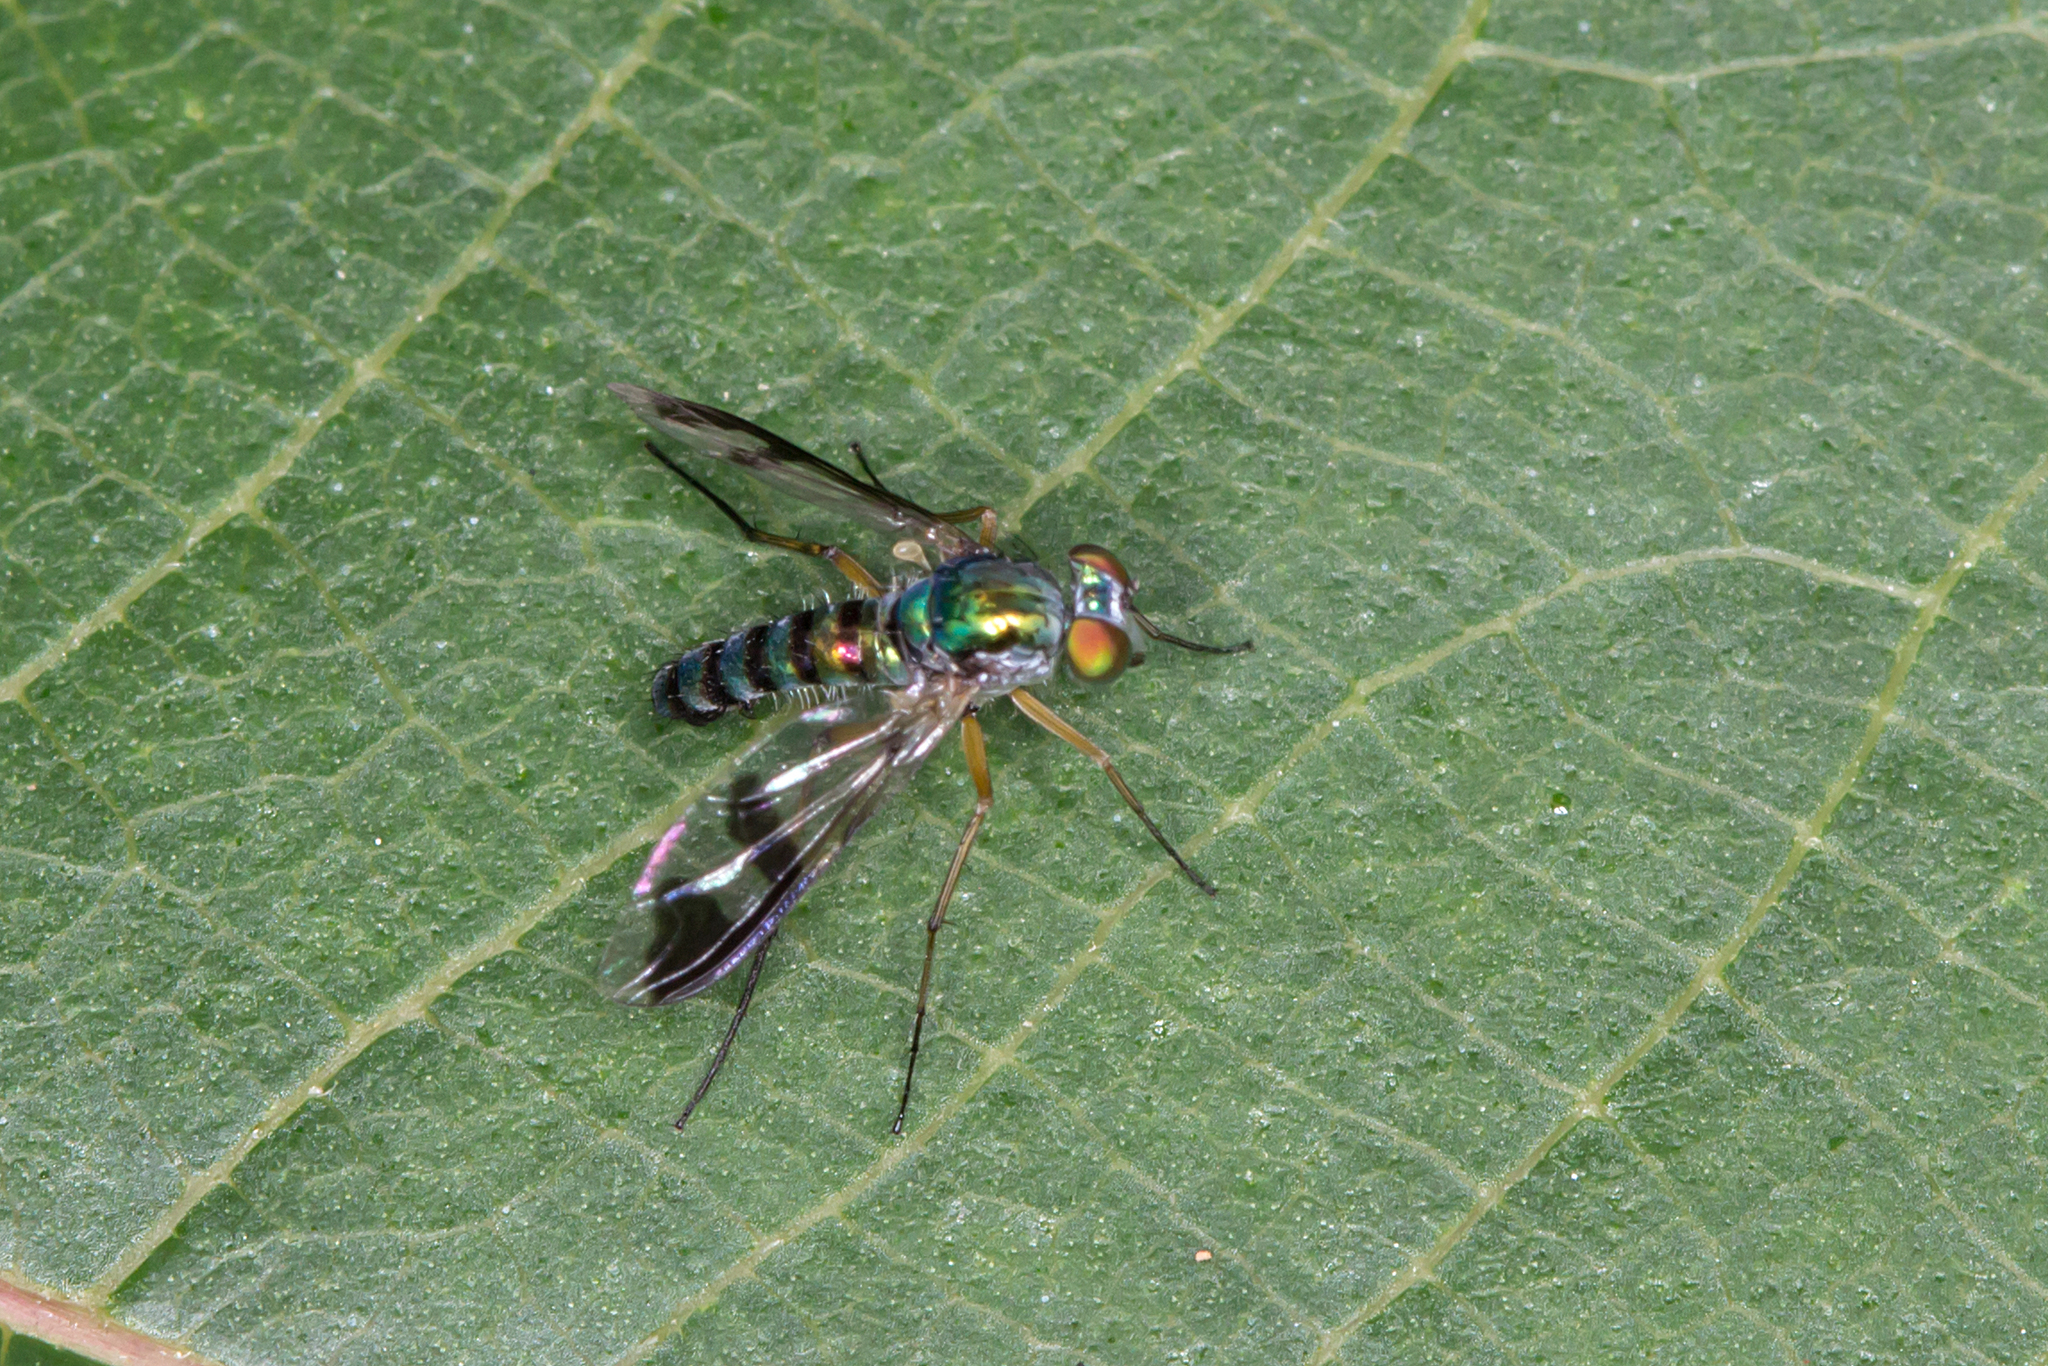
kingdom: Animalia
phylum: Arthropoda
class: Insecta
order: Diptera
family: Dolichopodidae
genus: Austrosciapus
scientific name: Austrosciapus
